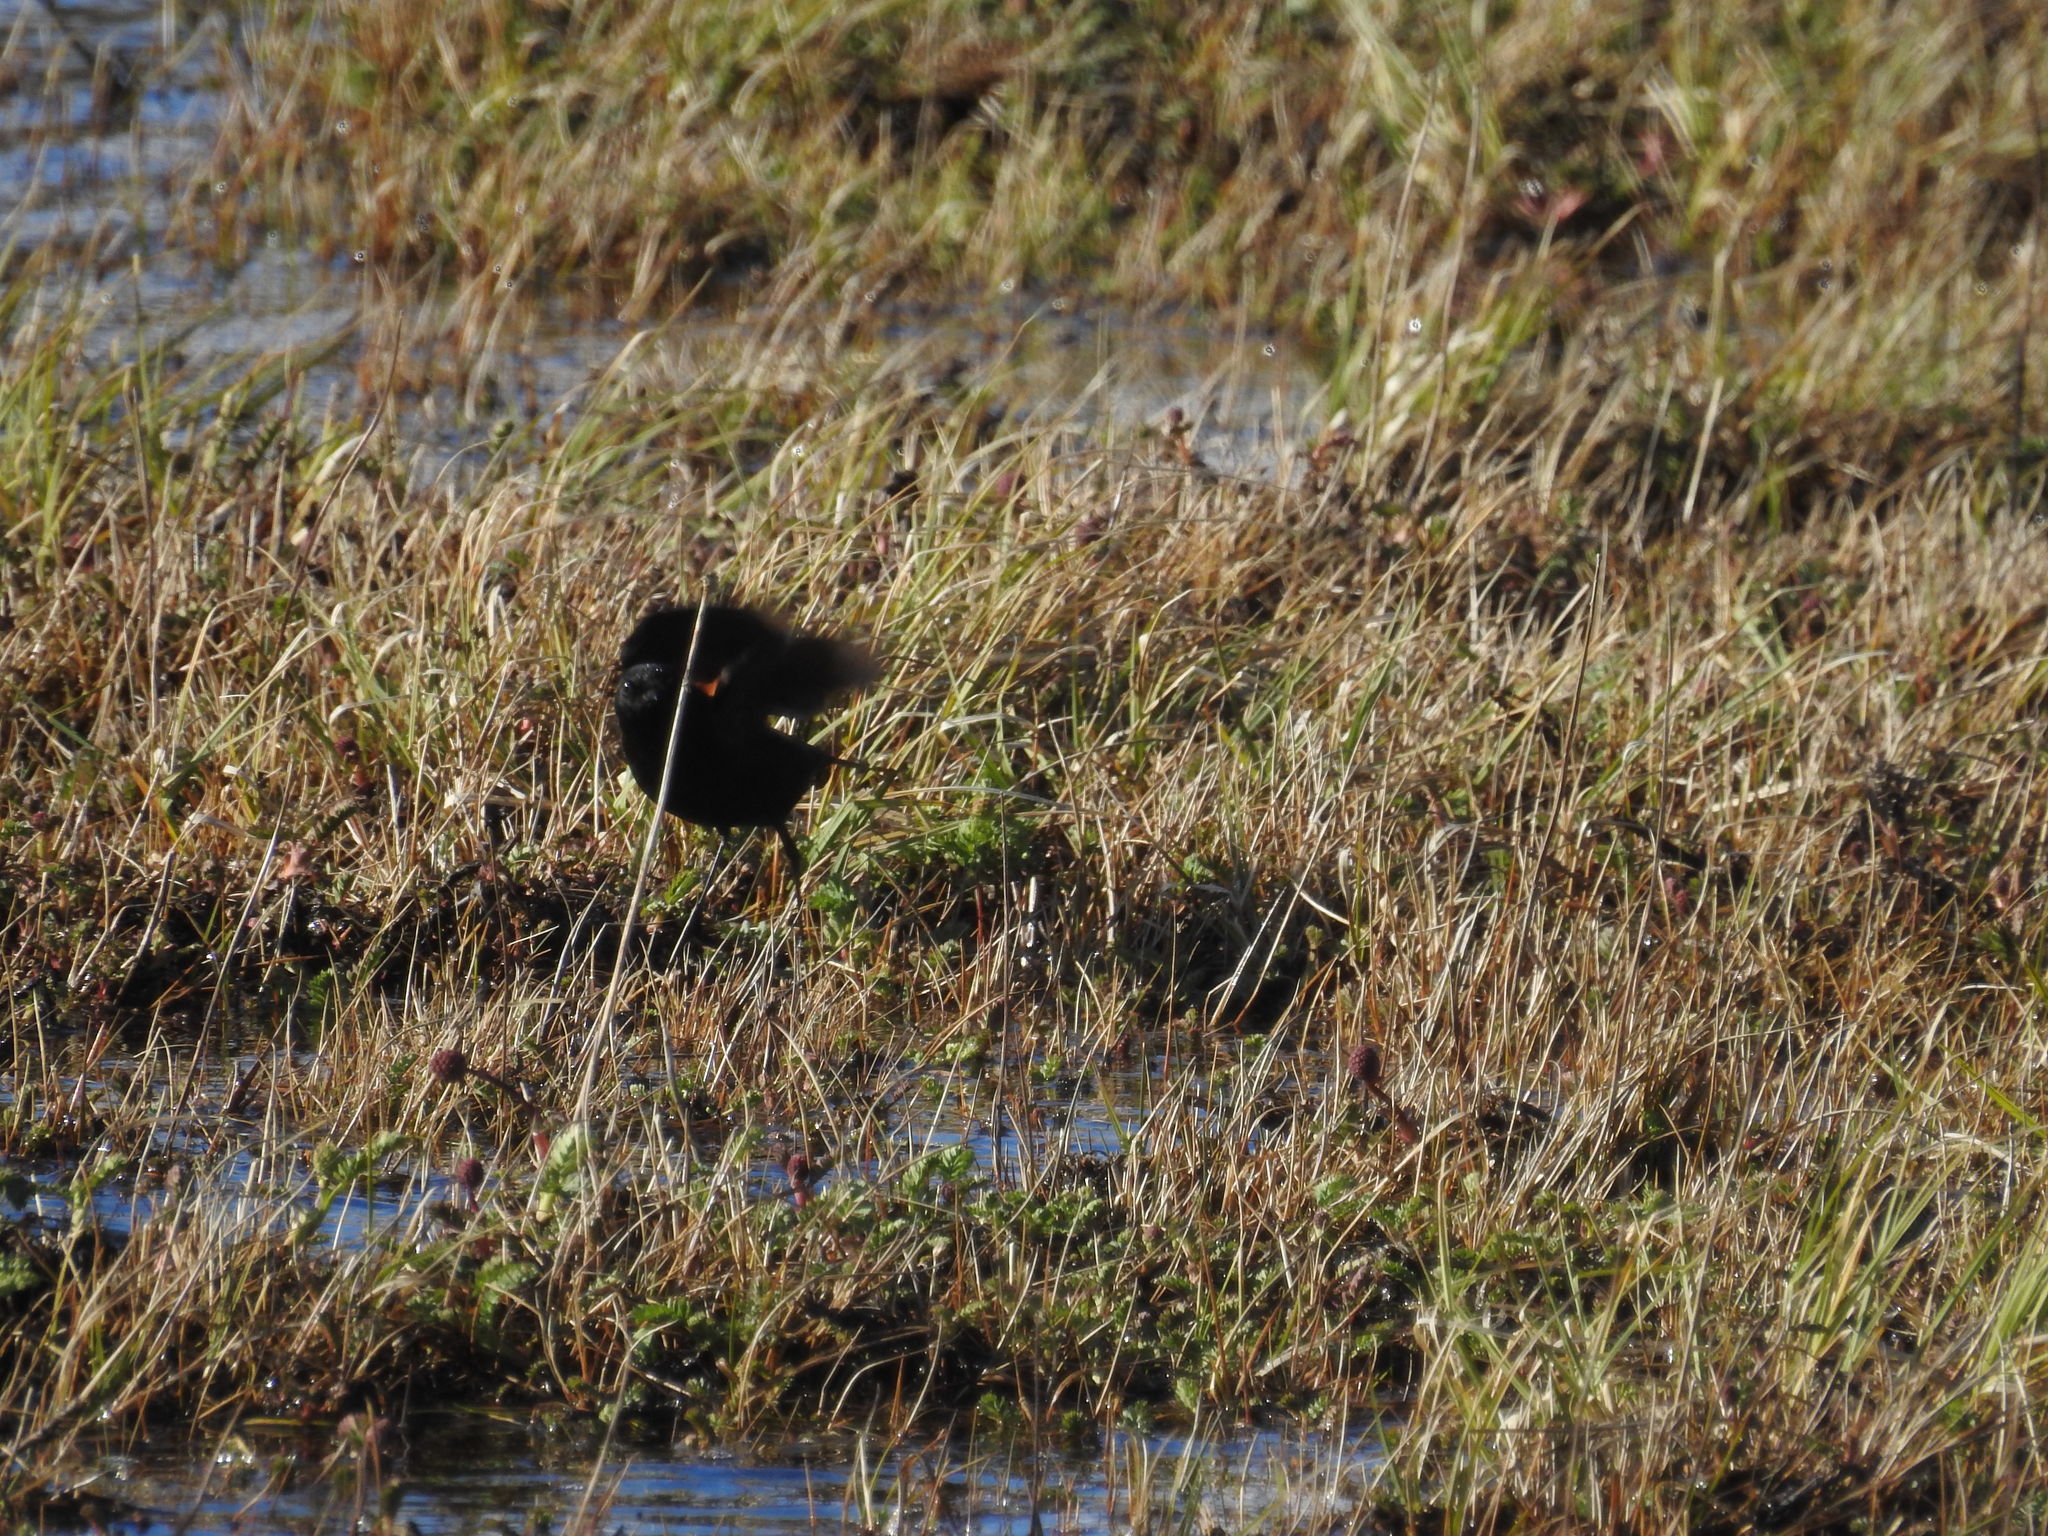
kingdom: Animalia
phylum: Chordata
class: Aves
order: Passeriformes
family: Tyrannidae
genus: Lessonia
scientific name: Lessonia rufa
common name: Austral negrito
